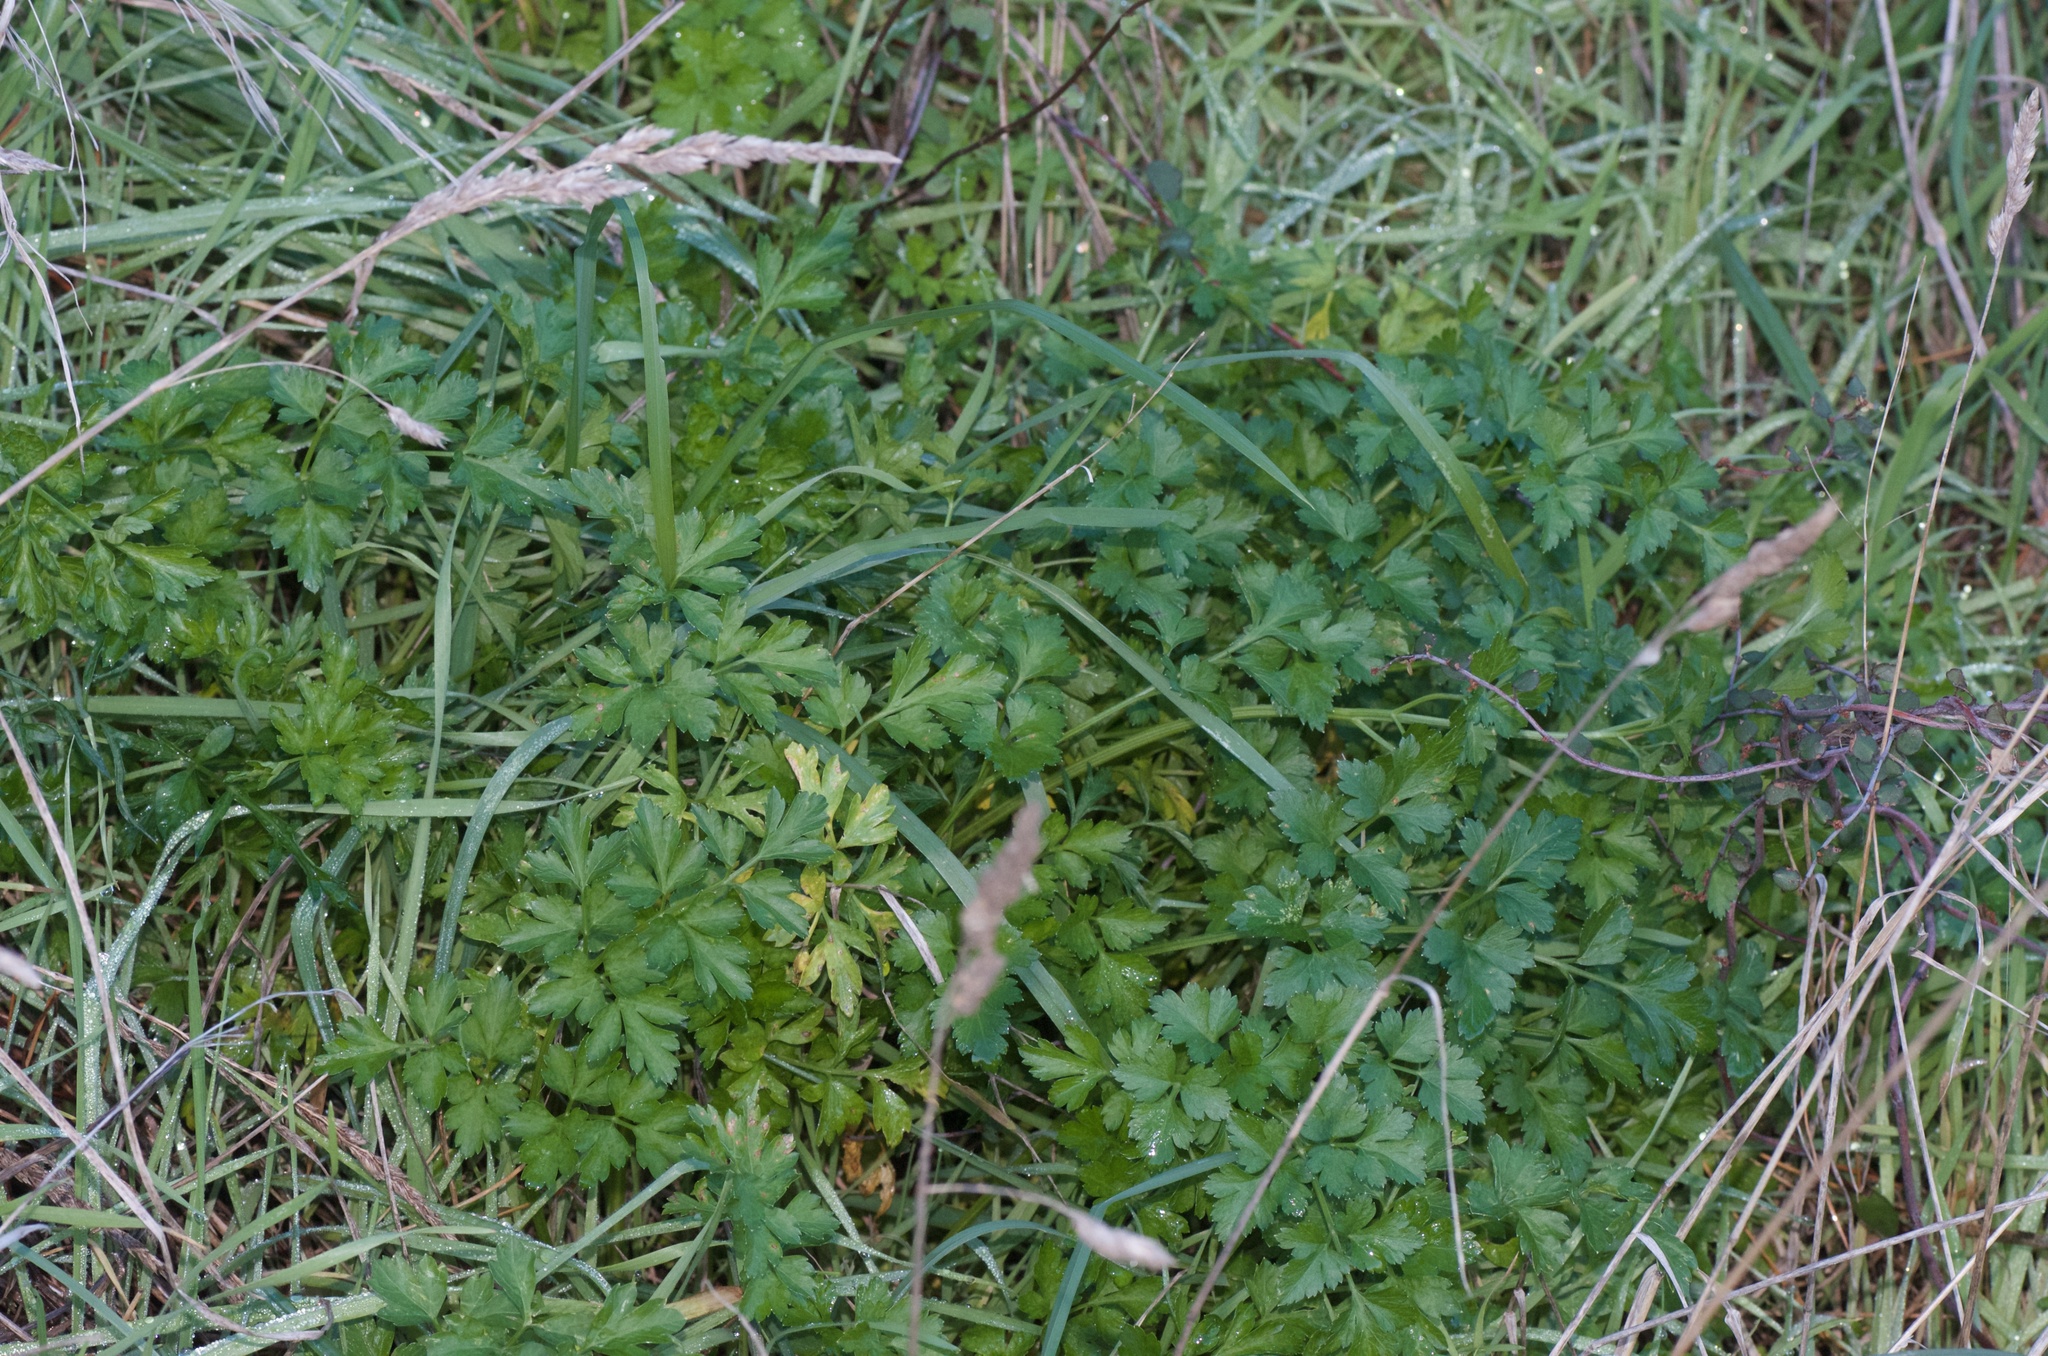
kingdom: Plantae
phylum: Tracheophyta
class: Magnoliopsida
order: Apiales
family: Apiaceae
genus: Petroselinum
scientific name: Petroselinum crispum
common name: Parsley
